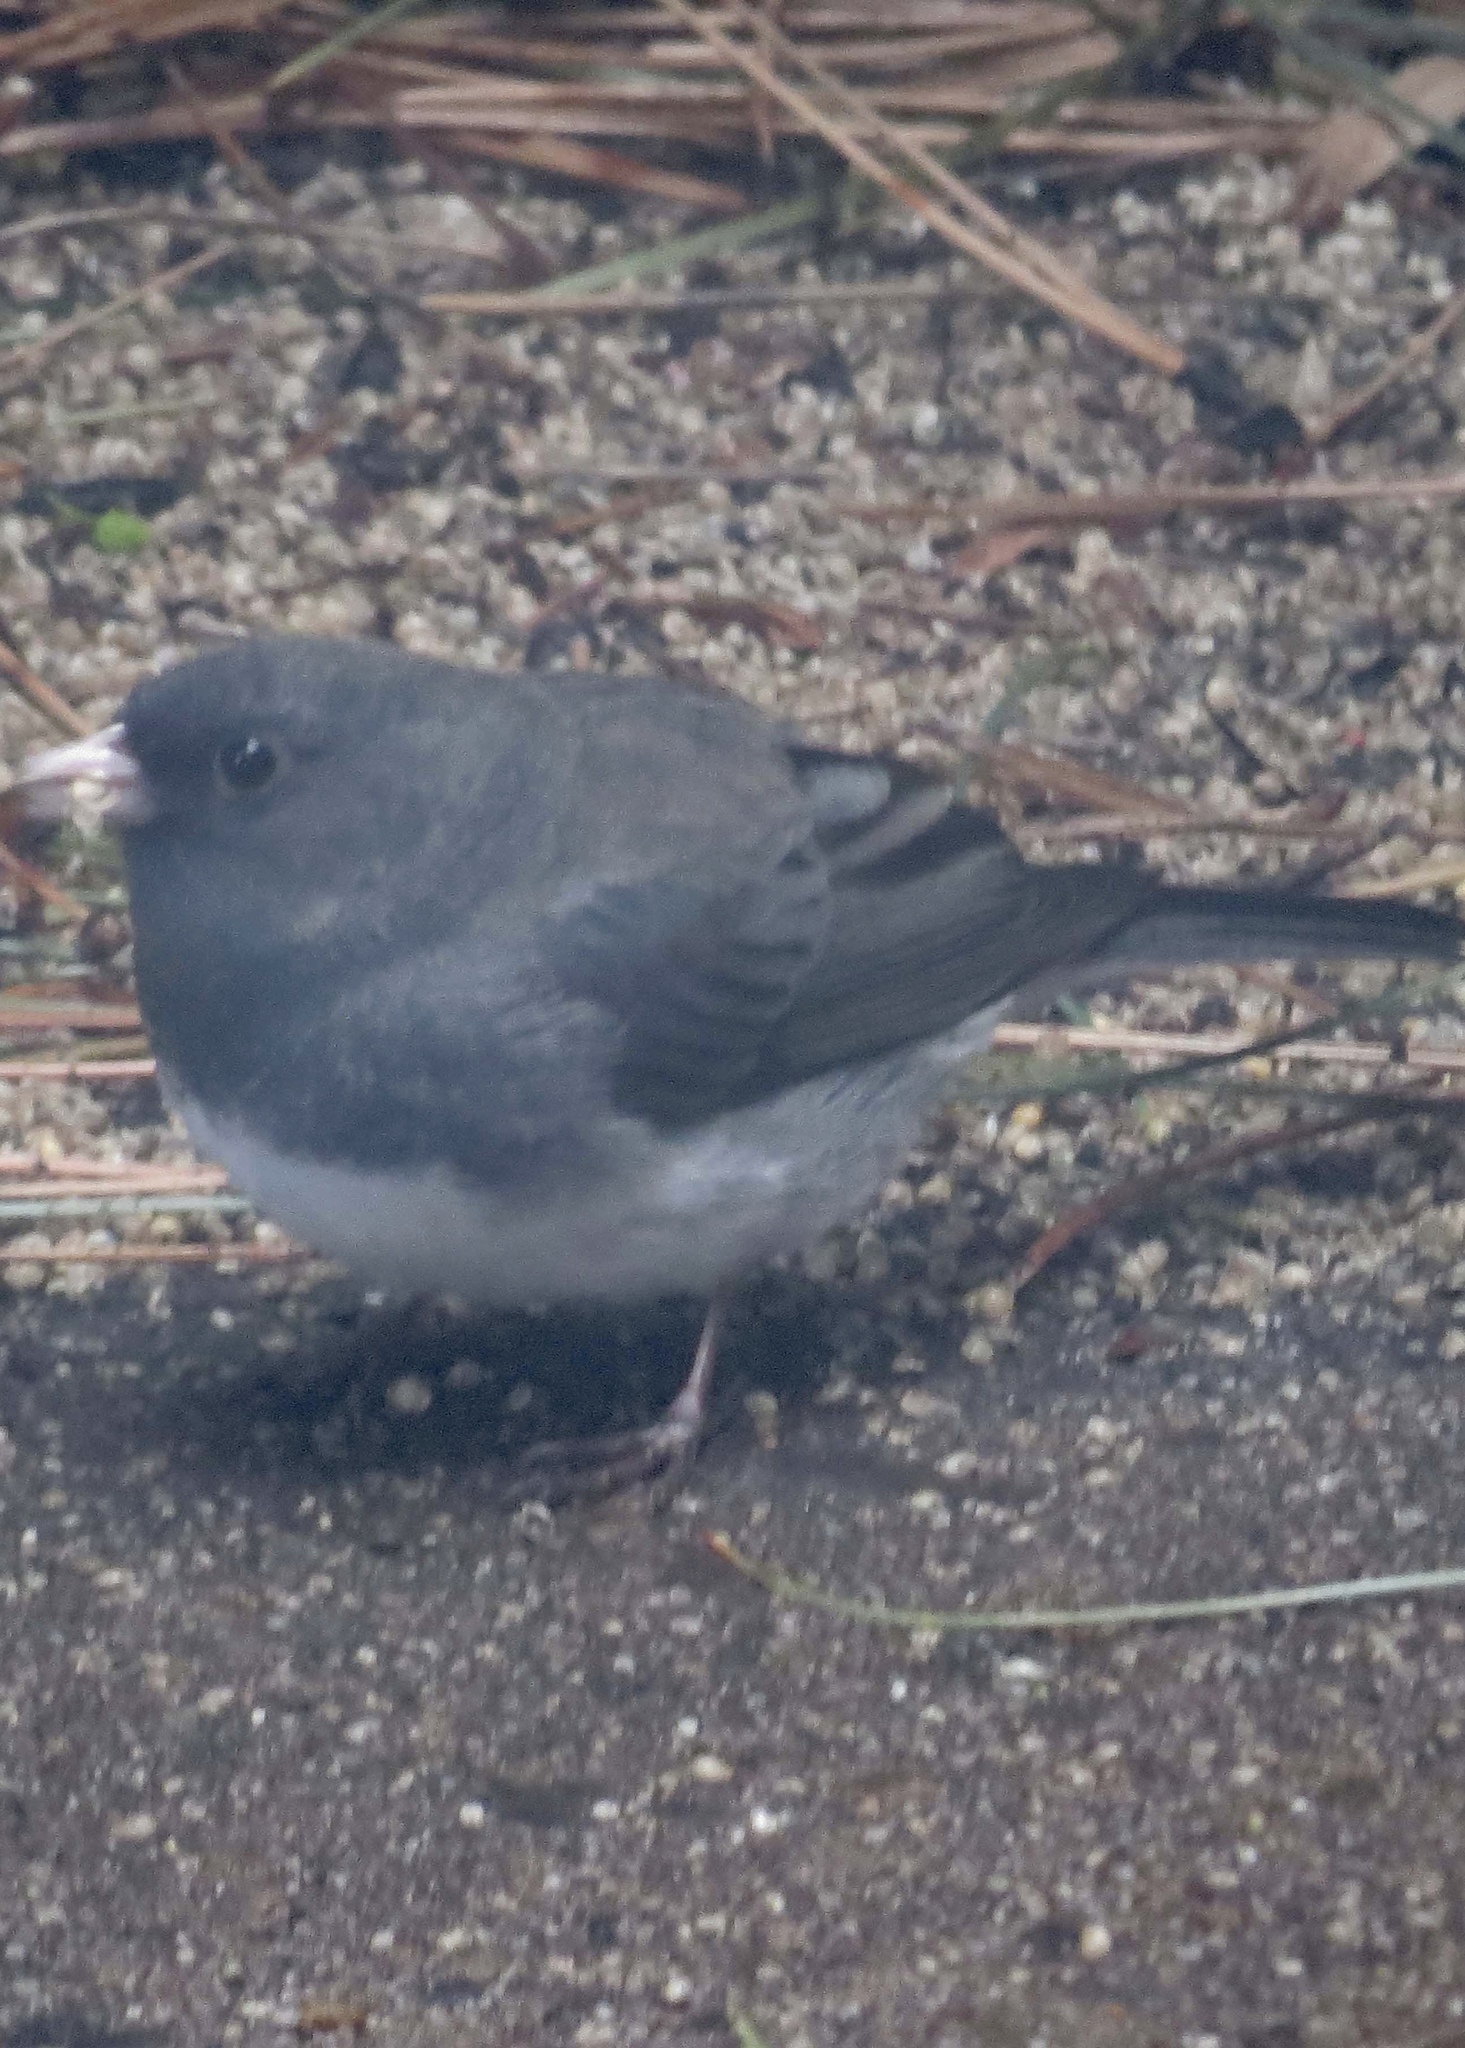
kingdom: Animalia
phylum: Chordata
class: Aves
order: Passeriformes
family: Passerellidae
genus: Junco
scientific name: Junco hyemalis
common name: Dark-eyed junco
